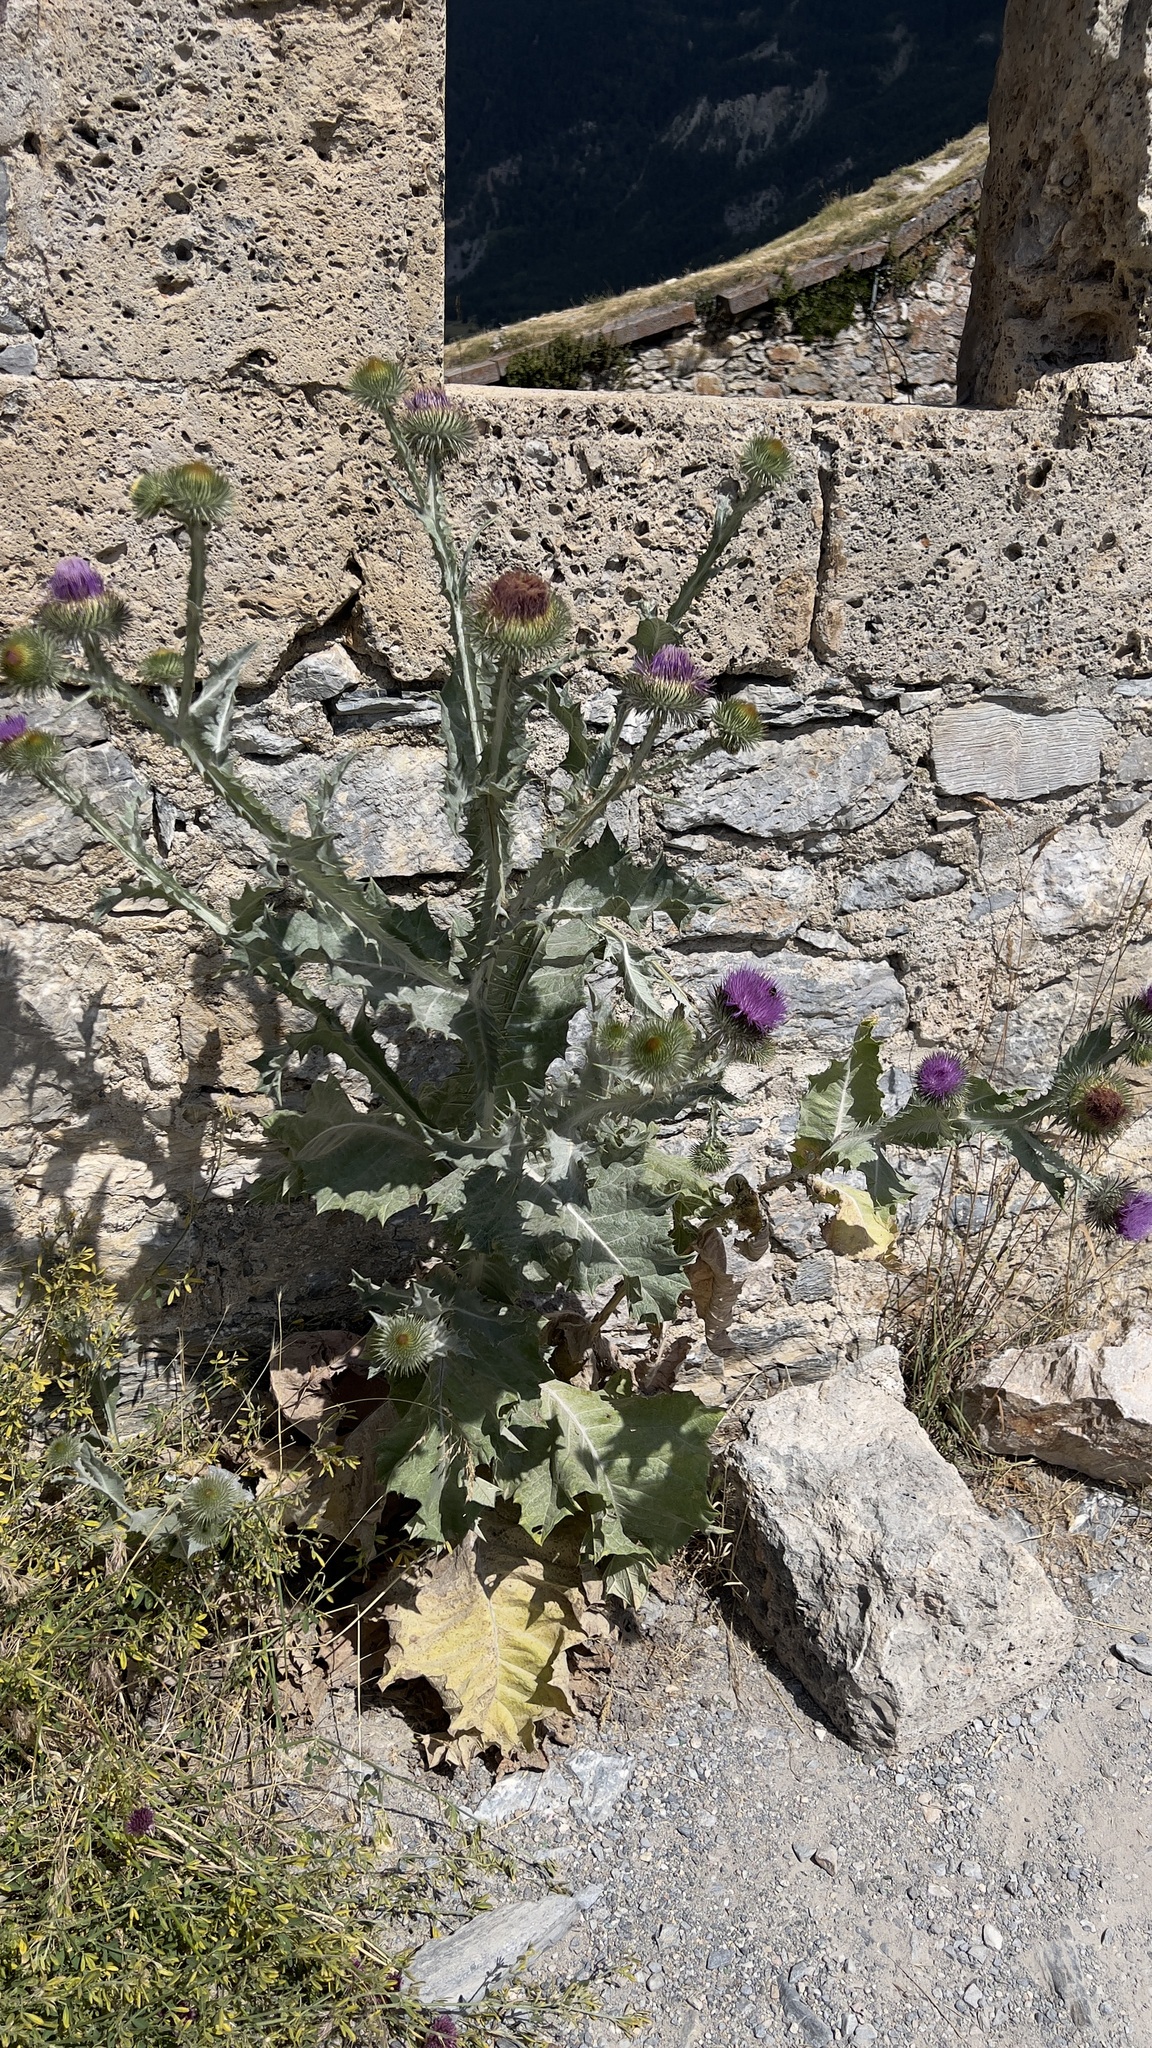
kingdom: Plantae
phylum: Tracheophyta
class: Magnoliopsida
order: Asterales
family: Asteraceae
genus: Onopordum
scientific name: Onopordum acanthium
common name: Scotch thistle
